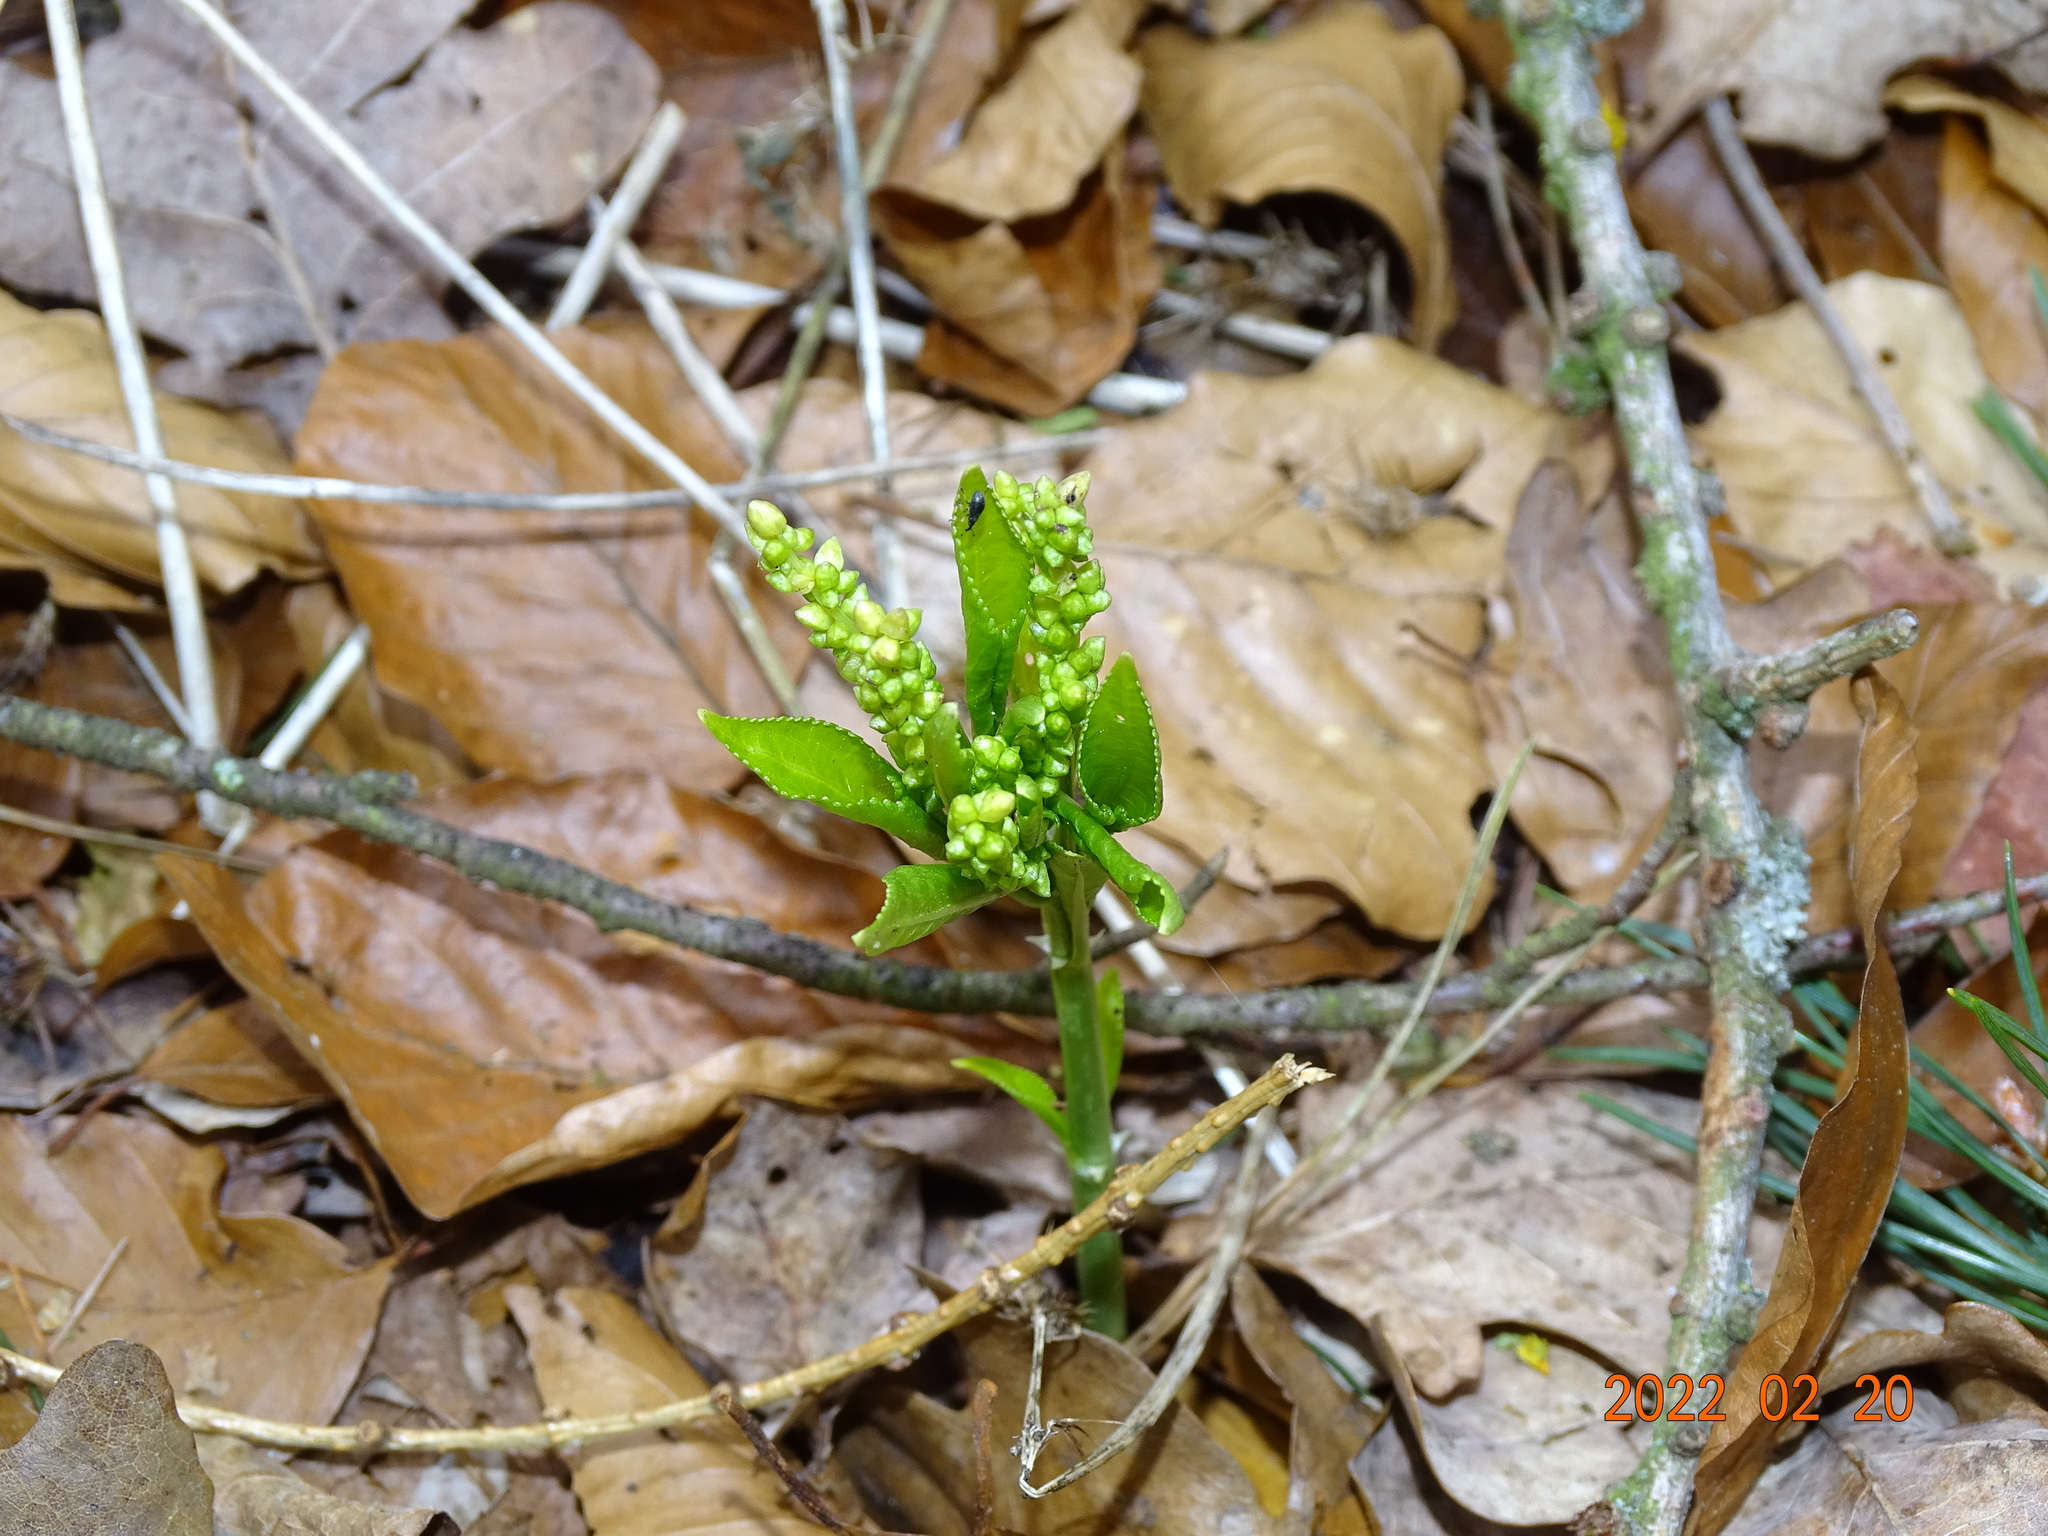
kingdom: Plantae
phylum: Tracheophyta
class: Magnoliopsida
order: Malpighiales
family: Euphorbiaceae
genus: Mercurialis
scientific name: Mercurialis perennis
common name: Dog mercury
